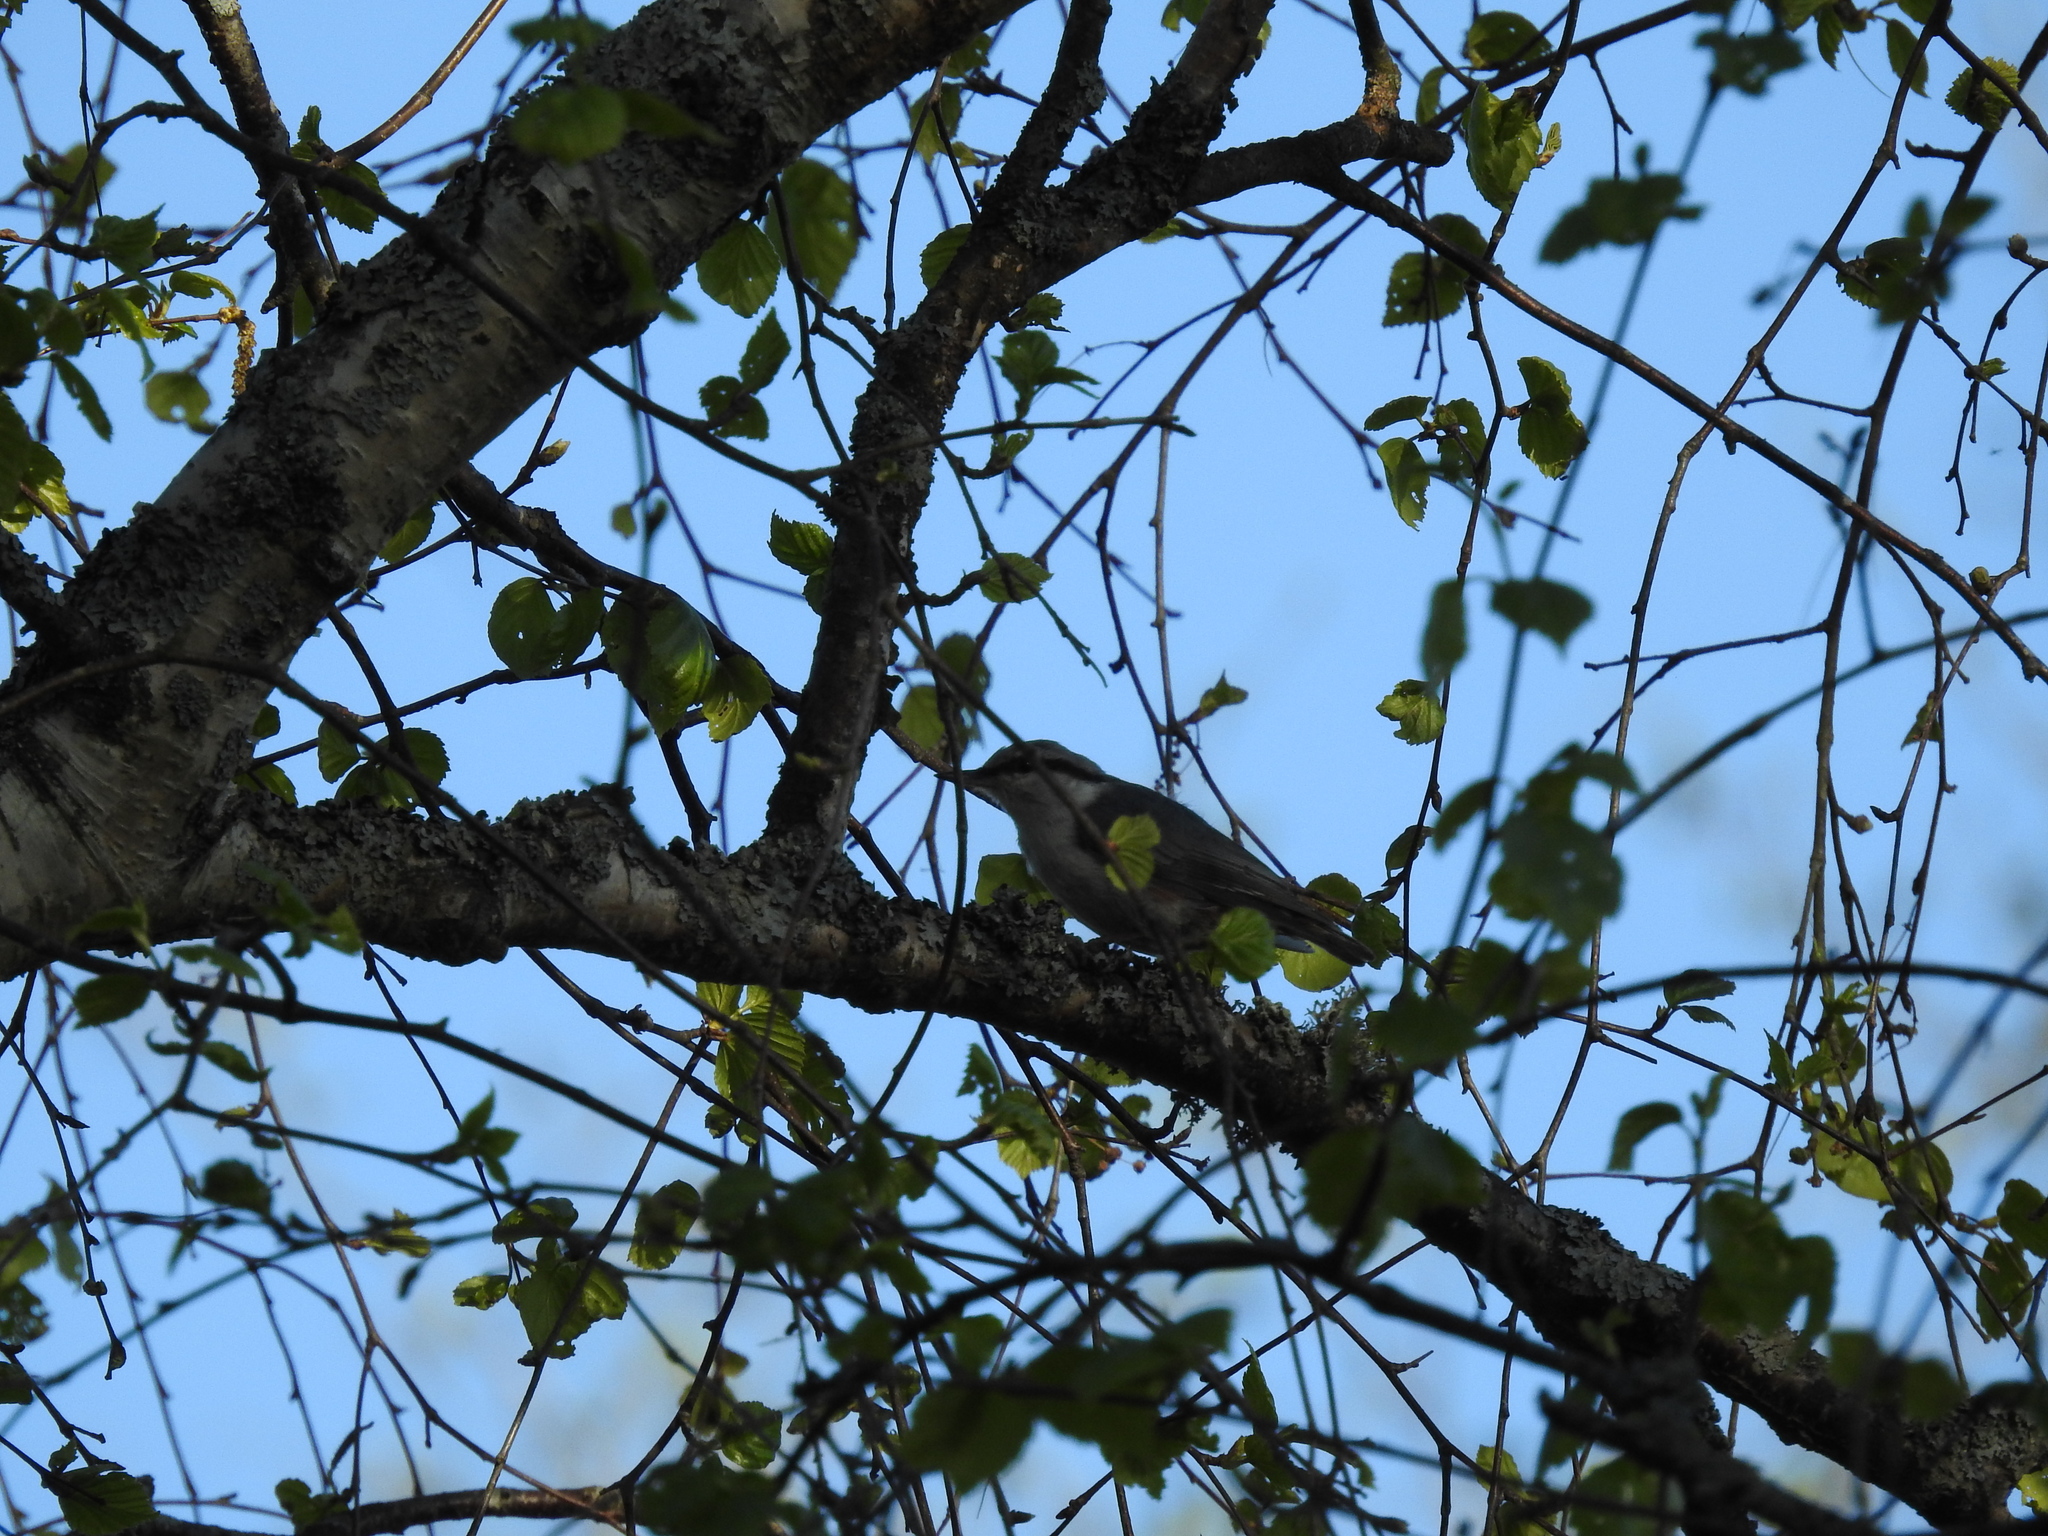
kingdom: Animalia
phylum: Chordata
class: Aves
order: Passeriformes
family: Sittidae
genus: Sitta
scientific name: Sitta europaea
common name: Eurasian nuthatch
